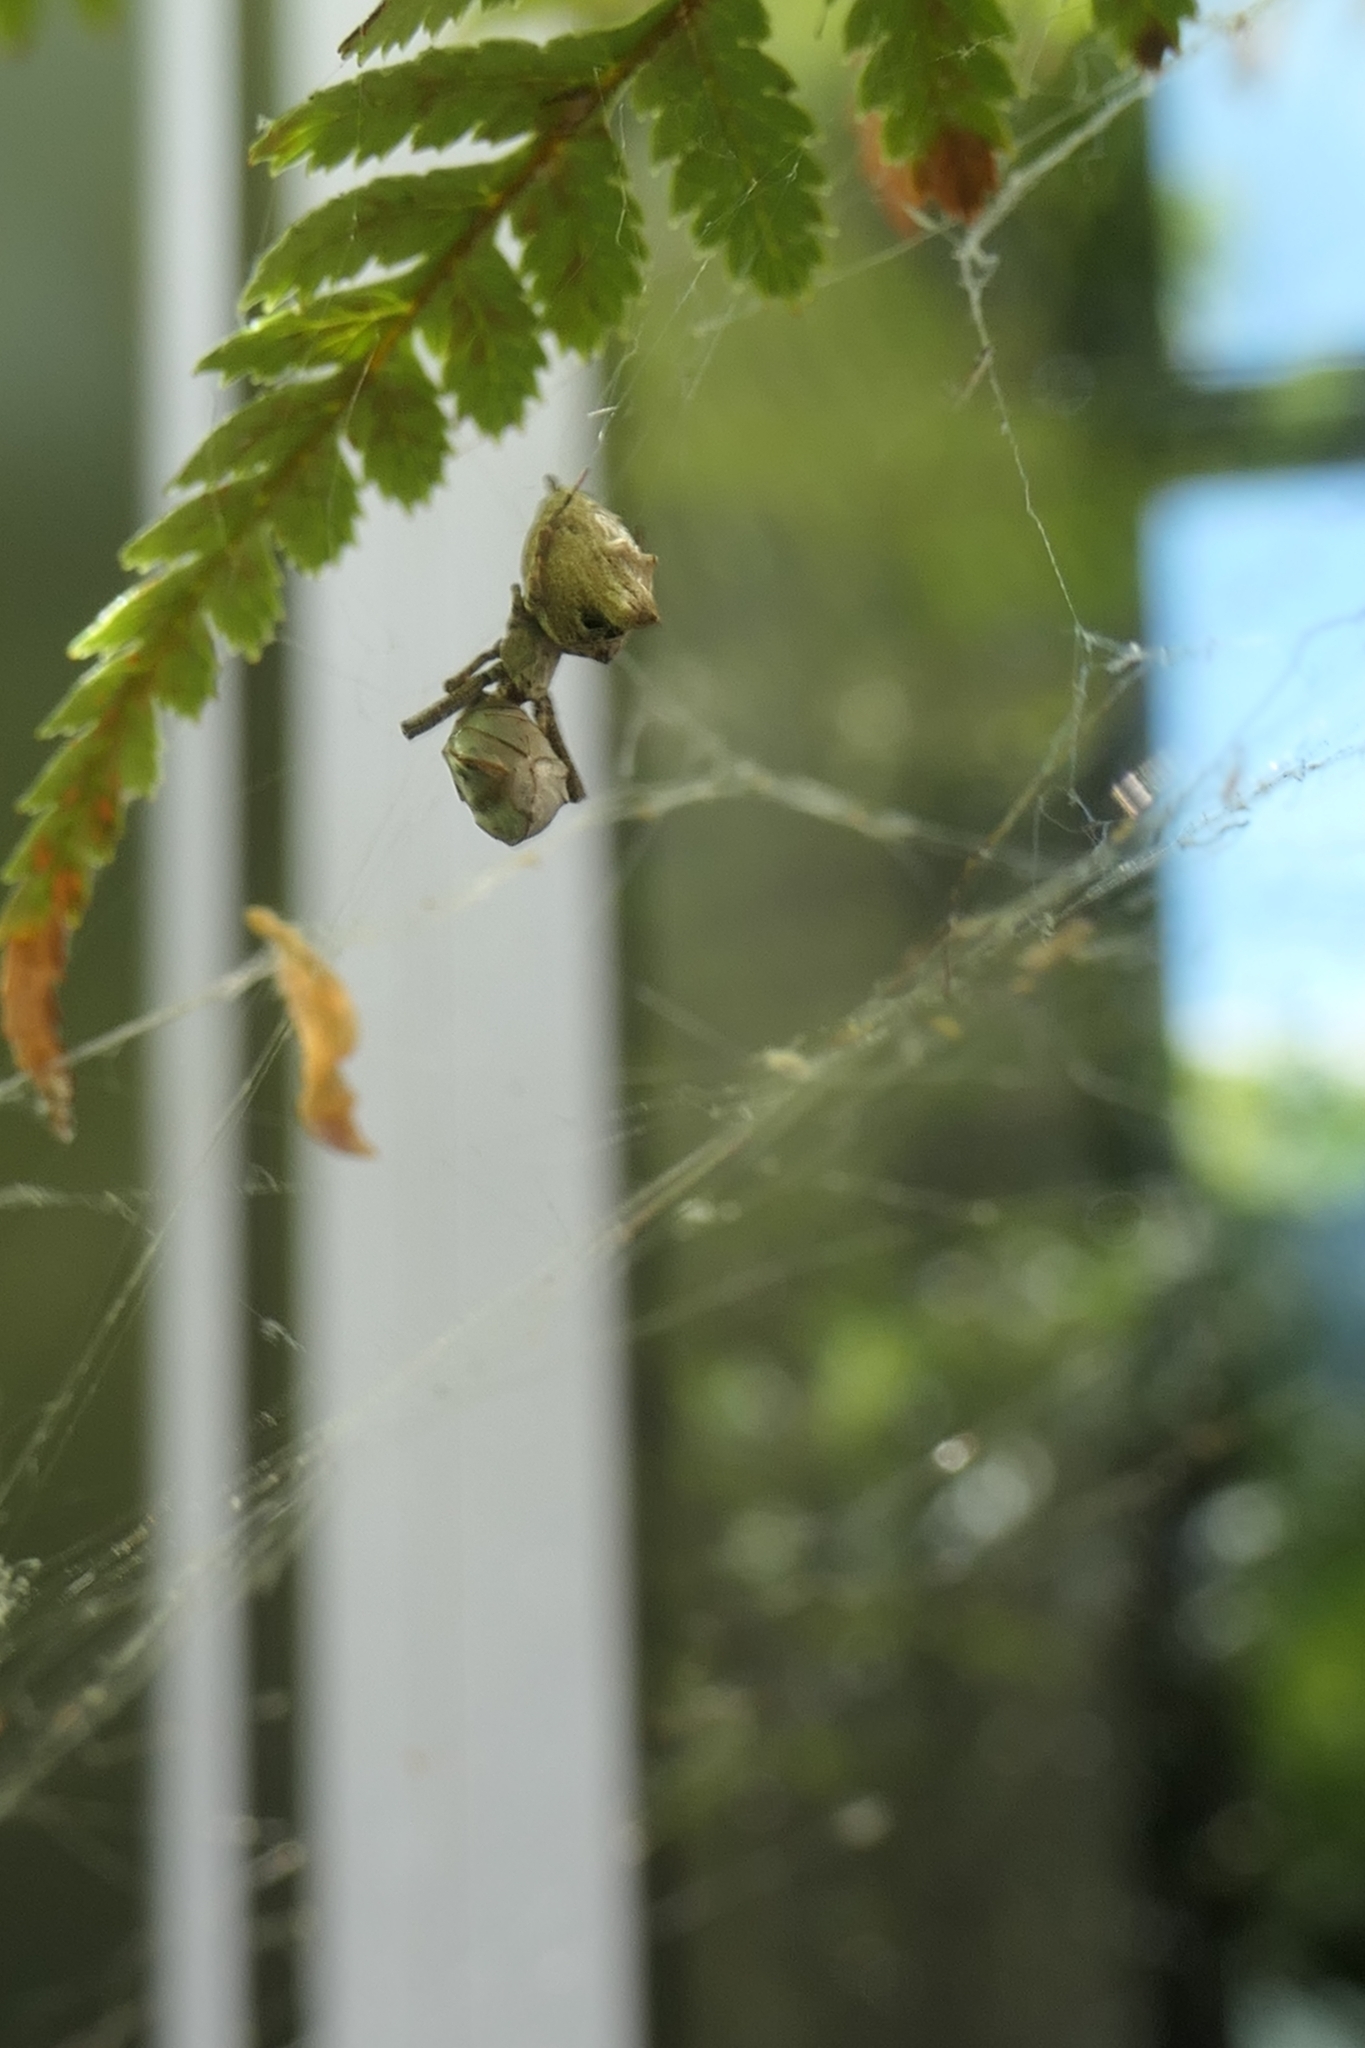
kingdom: Animalia
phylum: Arthropoda
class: Arachnida
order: Araneae
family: Uloboridae
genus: Philoponella
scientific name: Philoponella congregabilis
